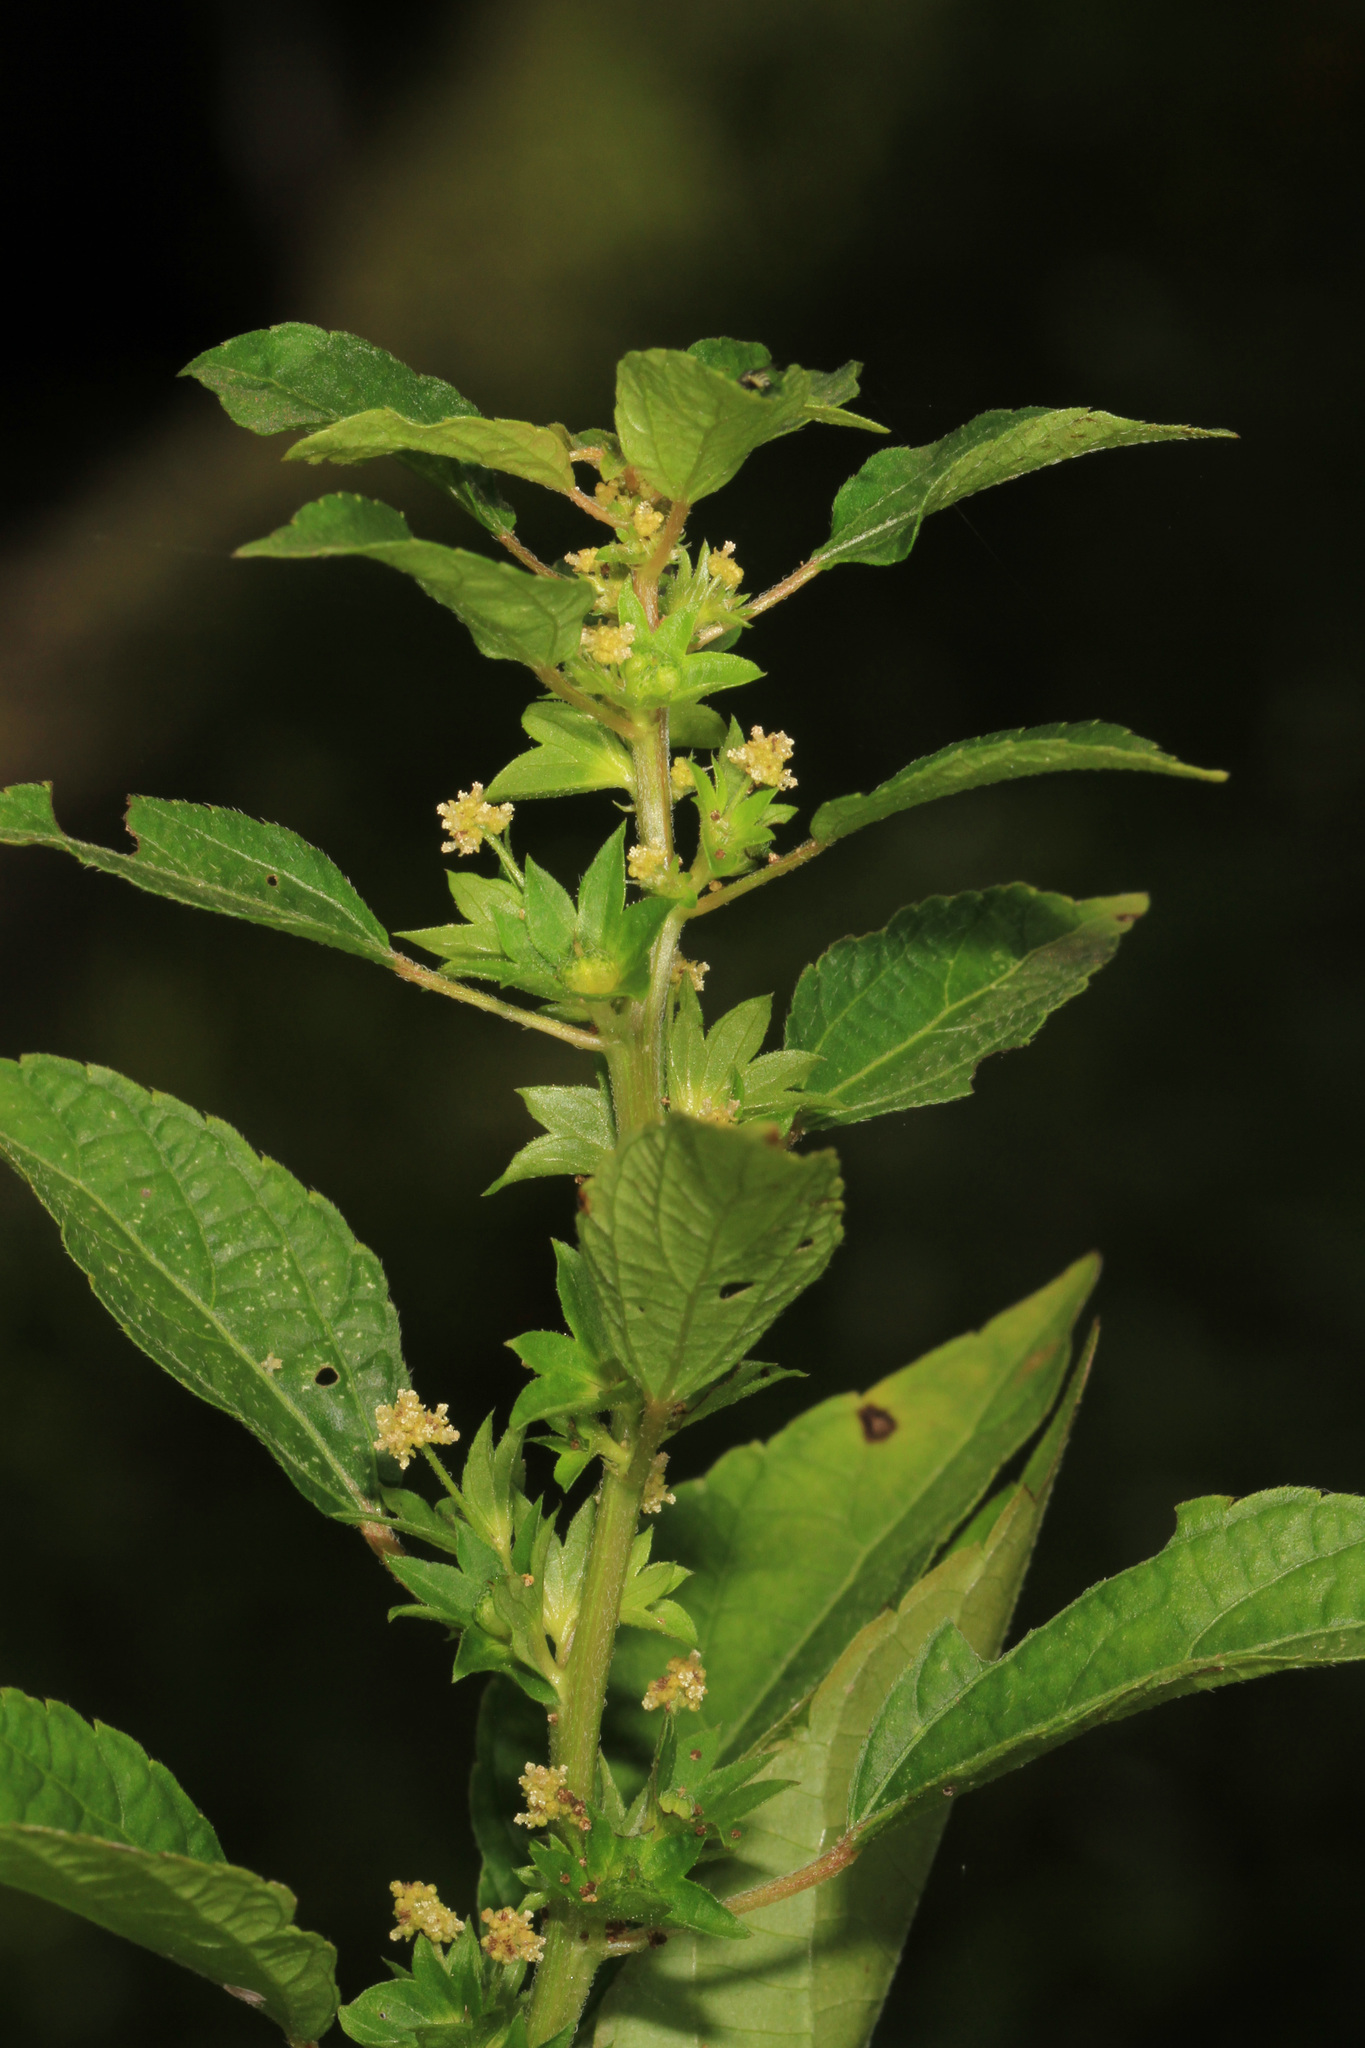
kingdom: Plantae
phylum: Tracheophyta
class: Magnoliopsida
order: Malpighiales
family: Euphorbiaceae
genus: Acalypha
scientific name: Acalypha rhomboidea
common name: Rhombic copperleaf
